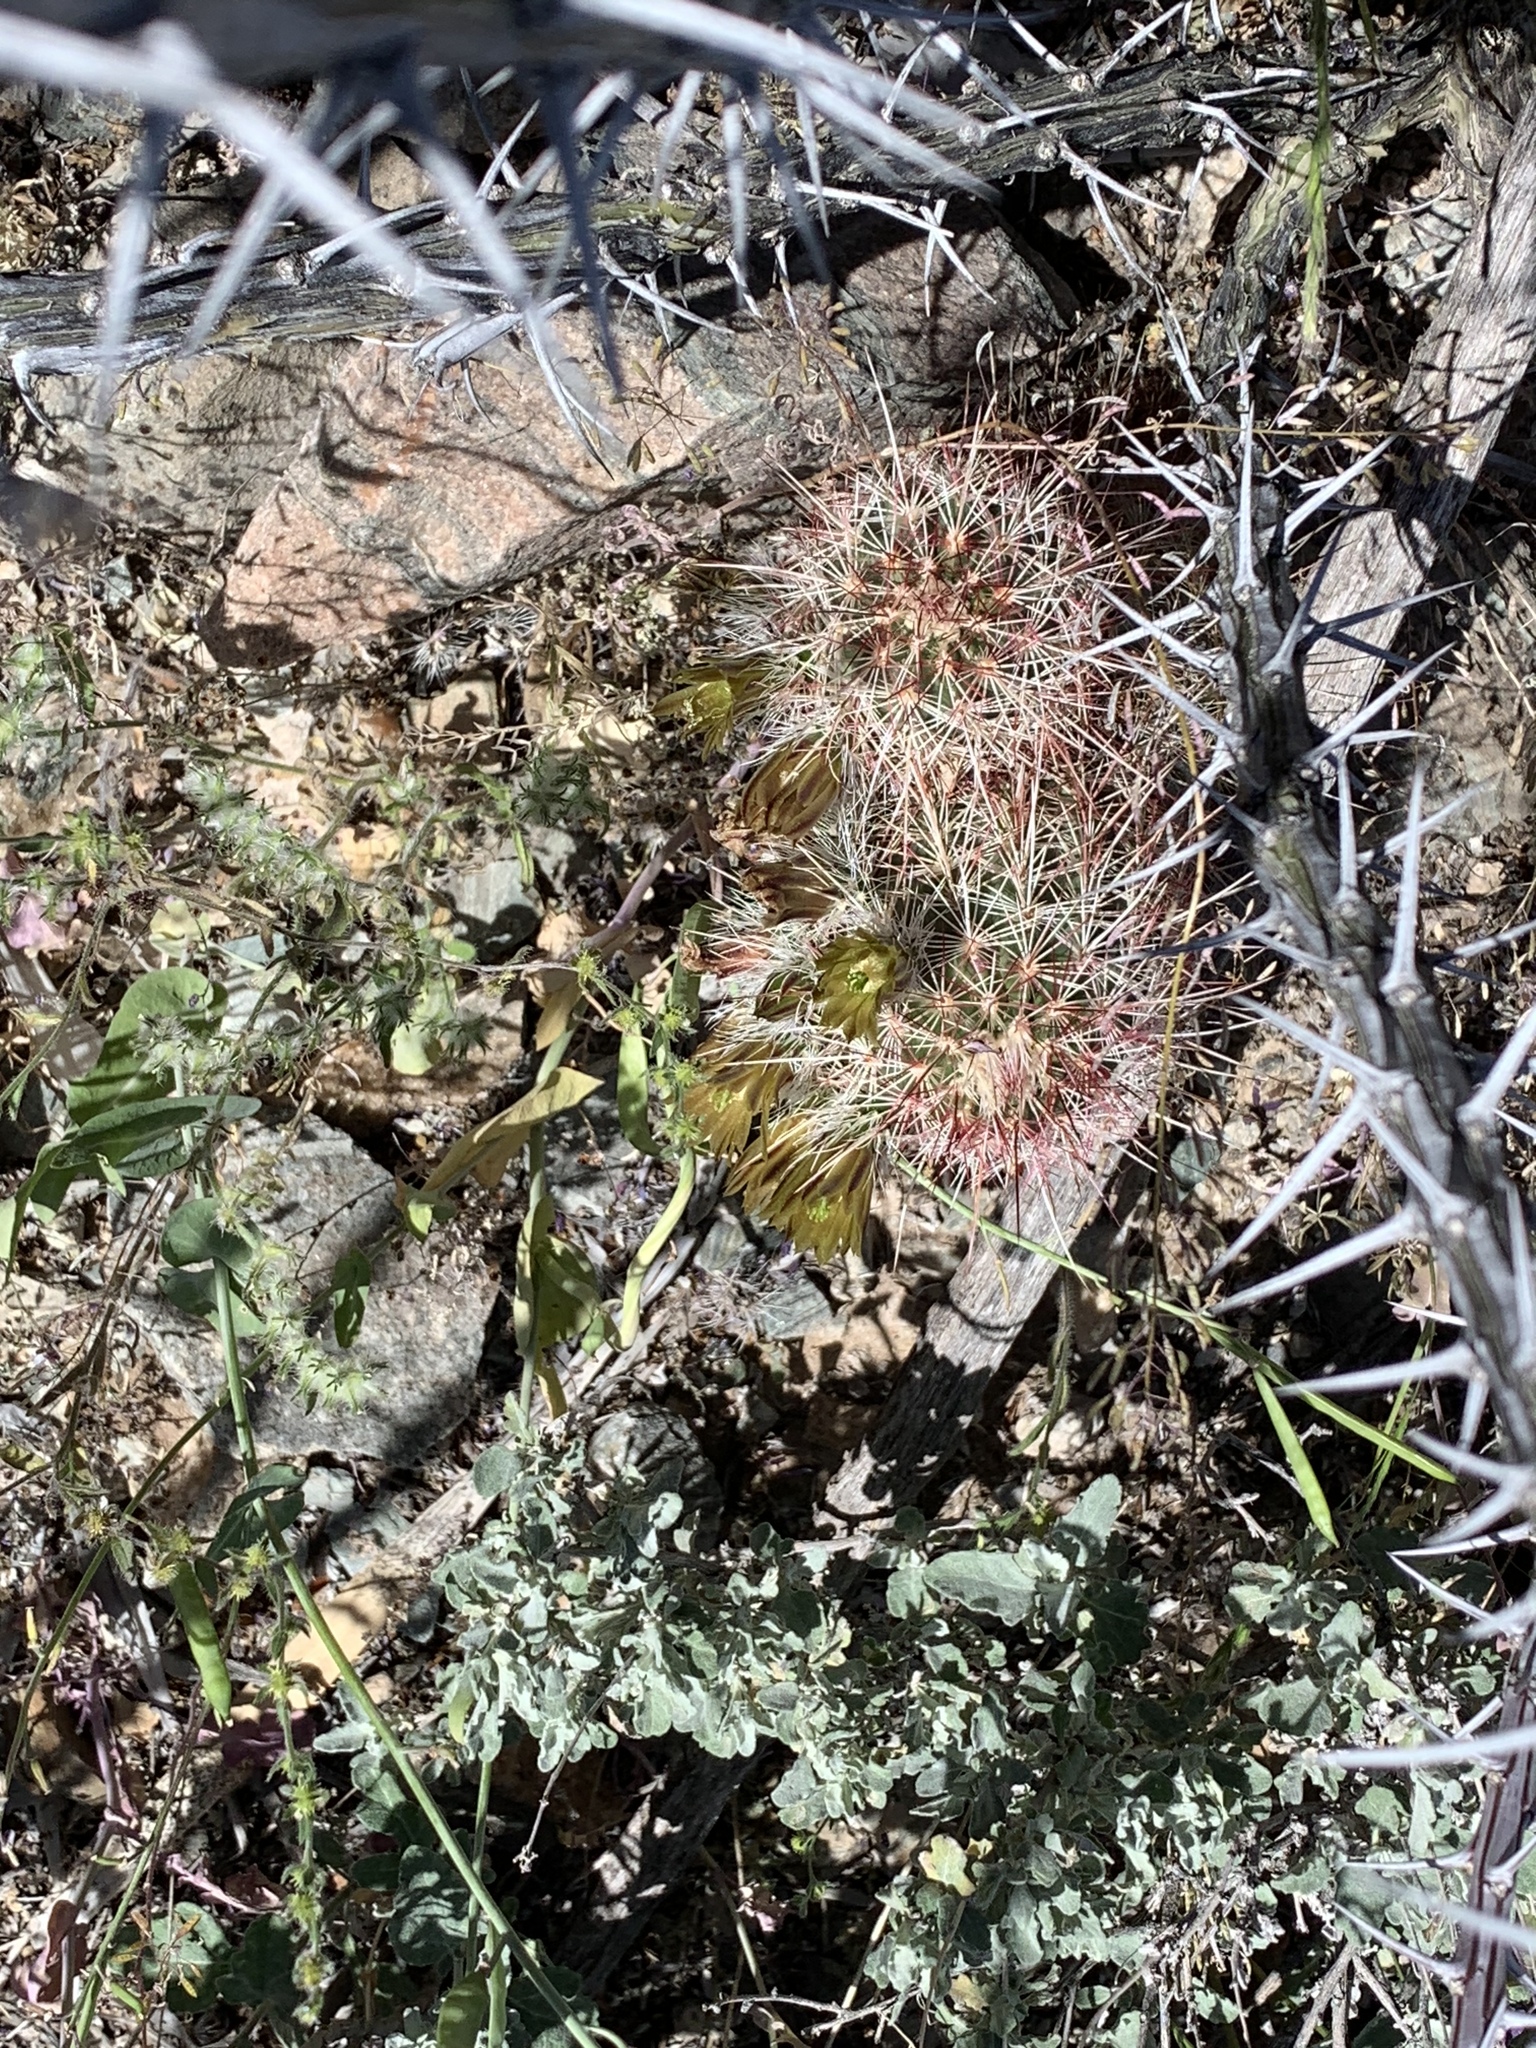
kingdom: Plantae
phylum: Tracheophyta
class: Magnoliopsida
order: Caryophyllales
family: Cactaceae
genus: Echinocereus
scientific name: Echinocereus viridiflorus
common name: Nylon hedgehog cactus
